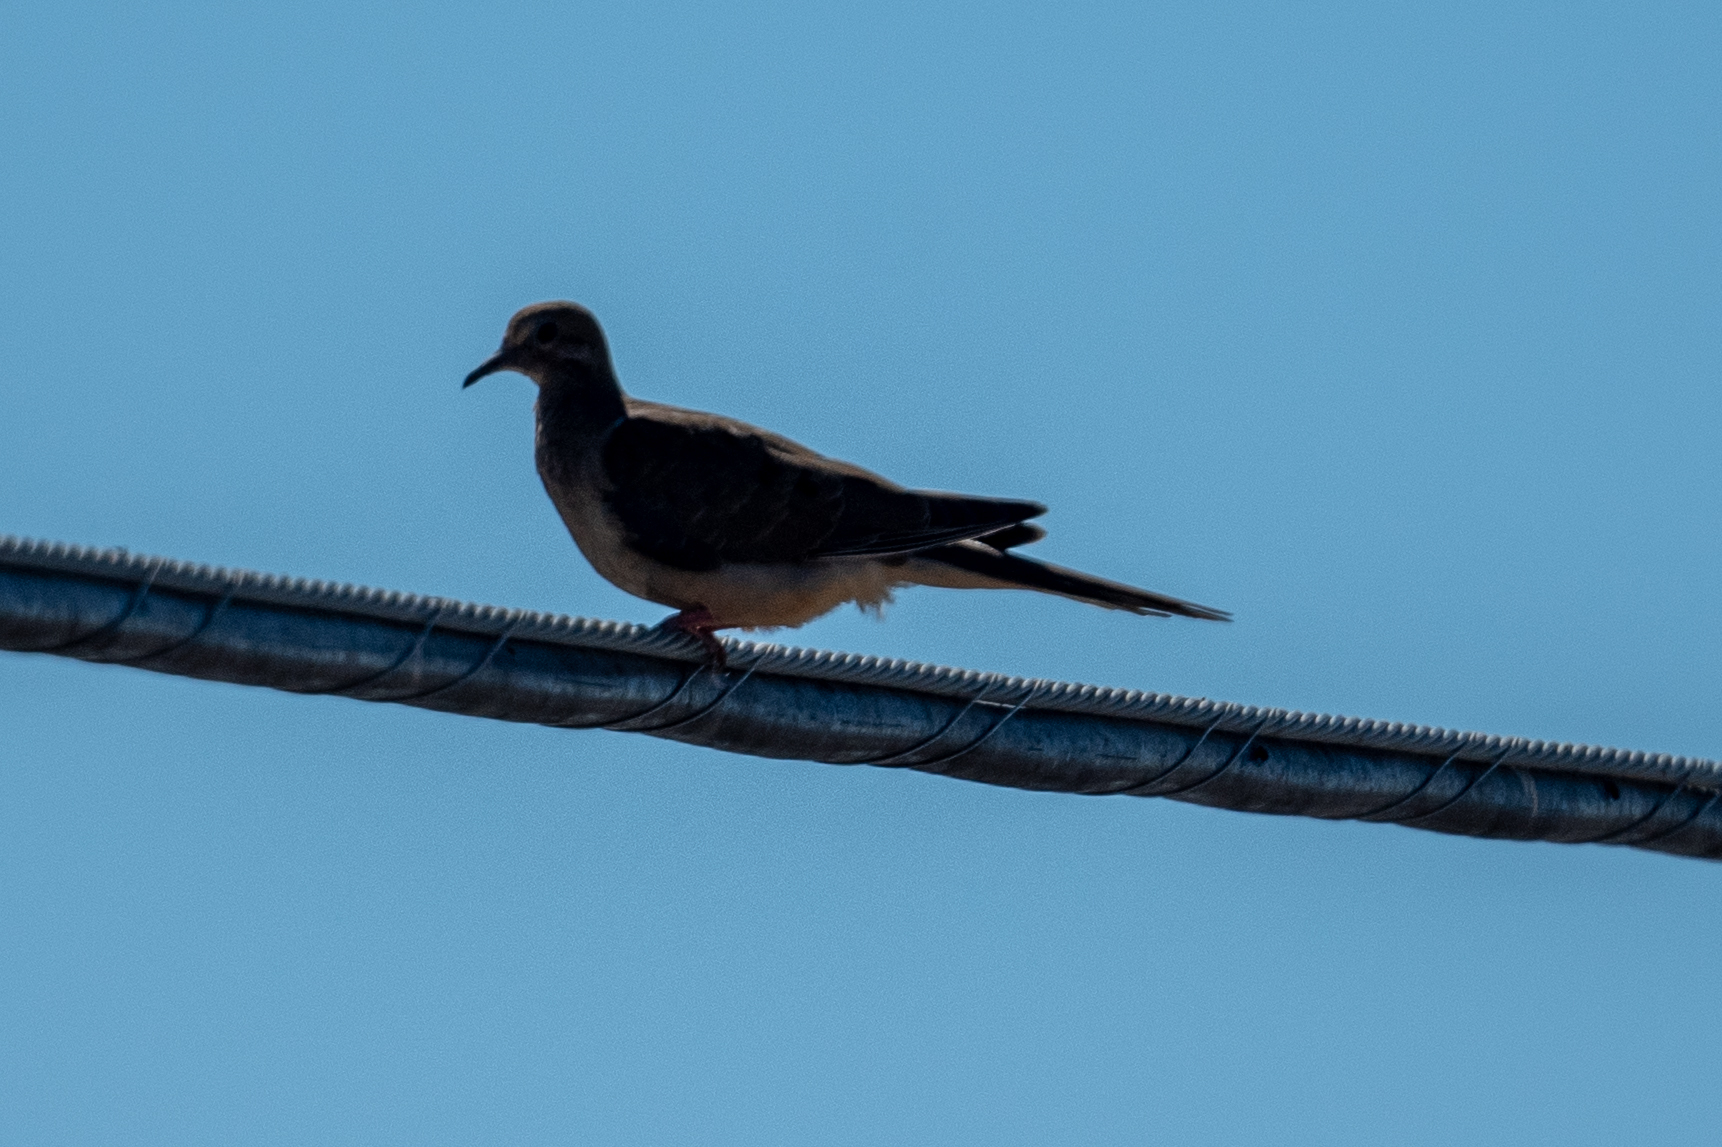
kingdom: Animalia
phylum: Chordata
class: Aves
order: Columbiformes
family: Columbidae
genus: Zenaida
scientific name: Zenaida macroura
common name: Mourning dove
